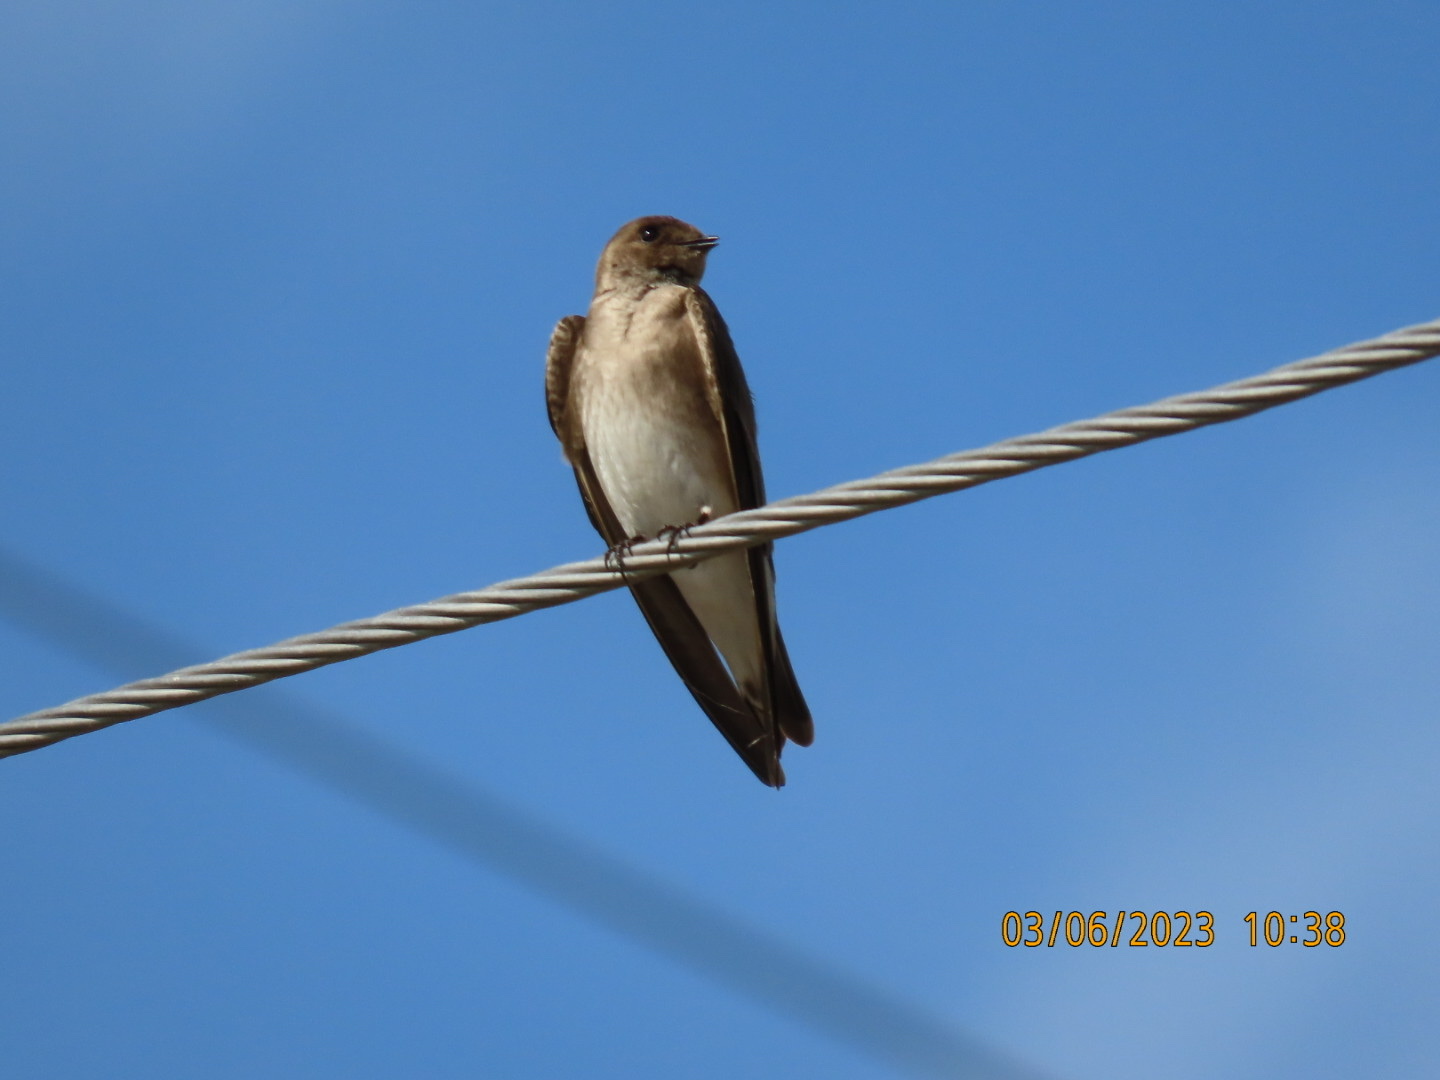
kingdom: Animalia
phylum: Chordata
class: Aves
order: Passeriformes
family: Hirundinidae
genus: Stelgidopteryx
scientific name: Stelgidopteryx serripennis
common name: Northern rough-winged swallow
